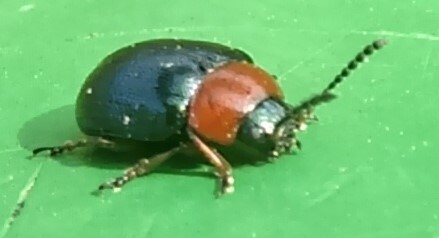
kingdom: Animalia
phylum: Arthropoda
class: Insecta
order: Coleoptera
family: Chrysomelidae
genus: Gastrophysa
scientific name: Gastrophysa polygoni
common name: Knotweed leaf beetle
